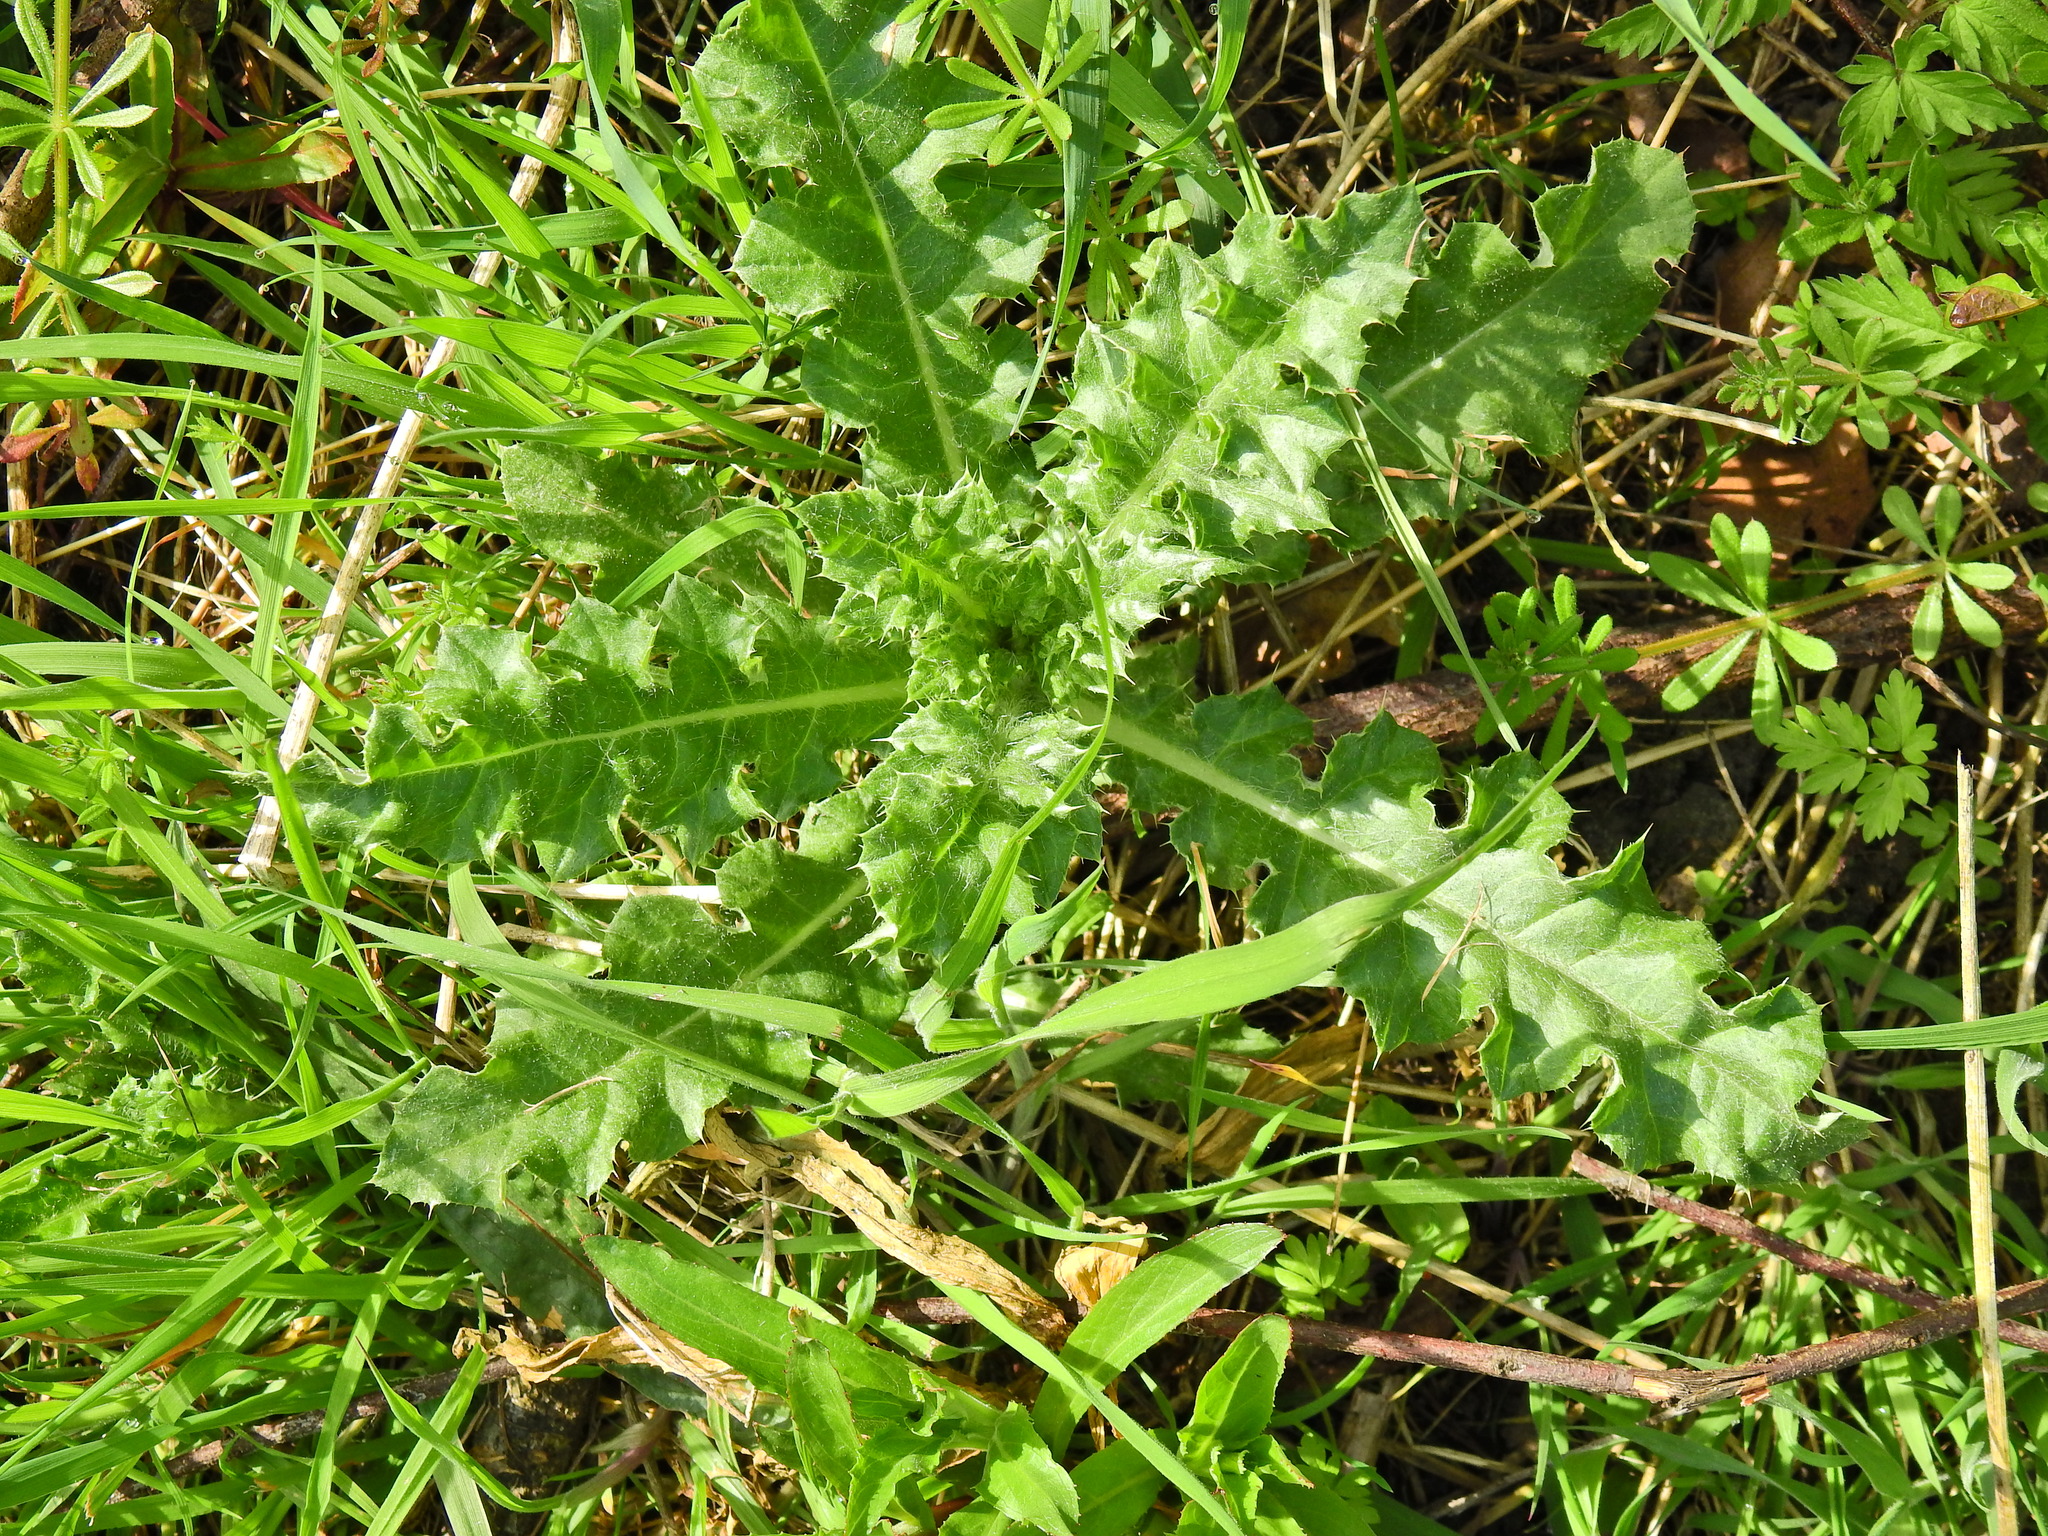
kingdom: Plantae
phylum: Tracheophyta
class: Magnoliopsida
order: Asterales
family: Asteraceae
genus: Cirsium
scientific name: Cirsium arvense
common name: Creeping thistle
